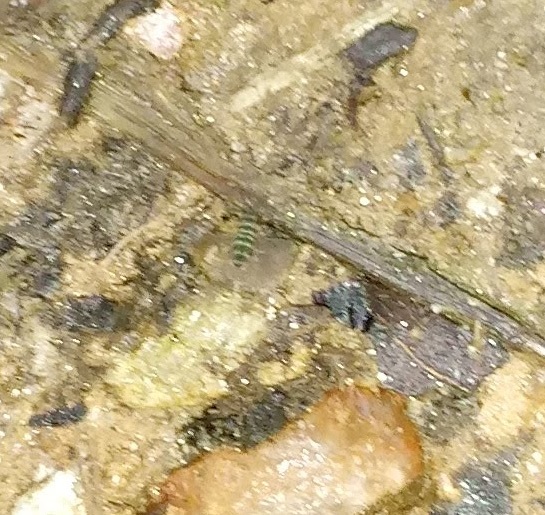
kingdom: Animalia
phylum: Arthropoda
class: Collembola
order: Entomobryomorpha
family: Isotomidae
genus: Isotomurus
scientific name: Isotomurus bimus
